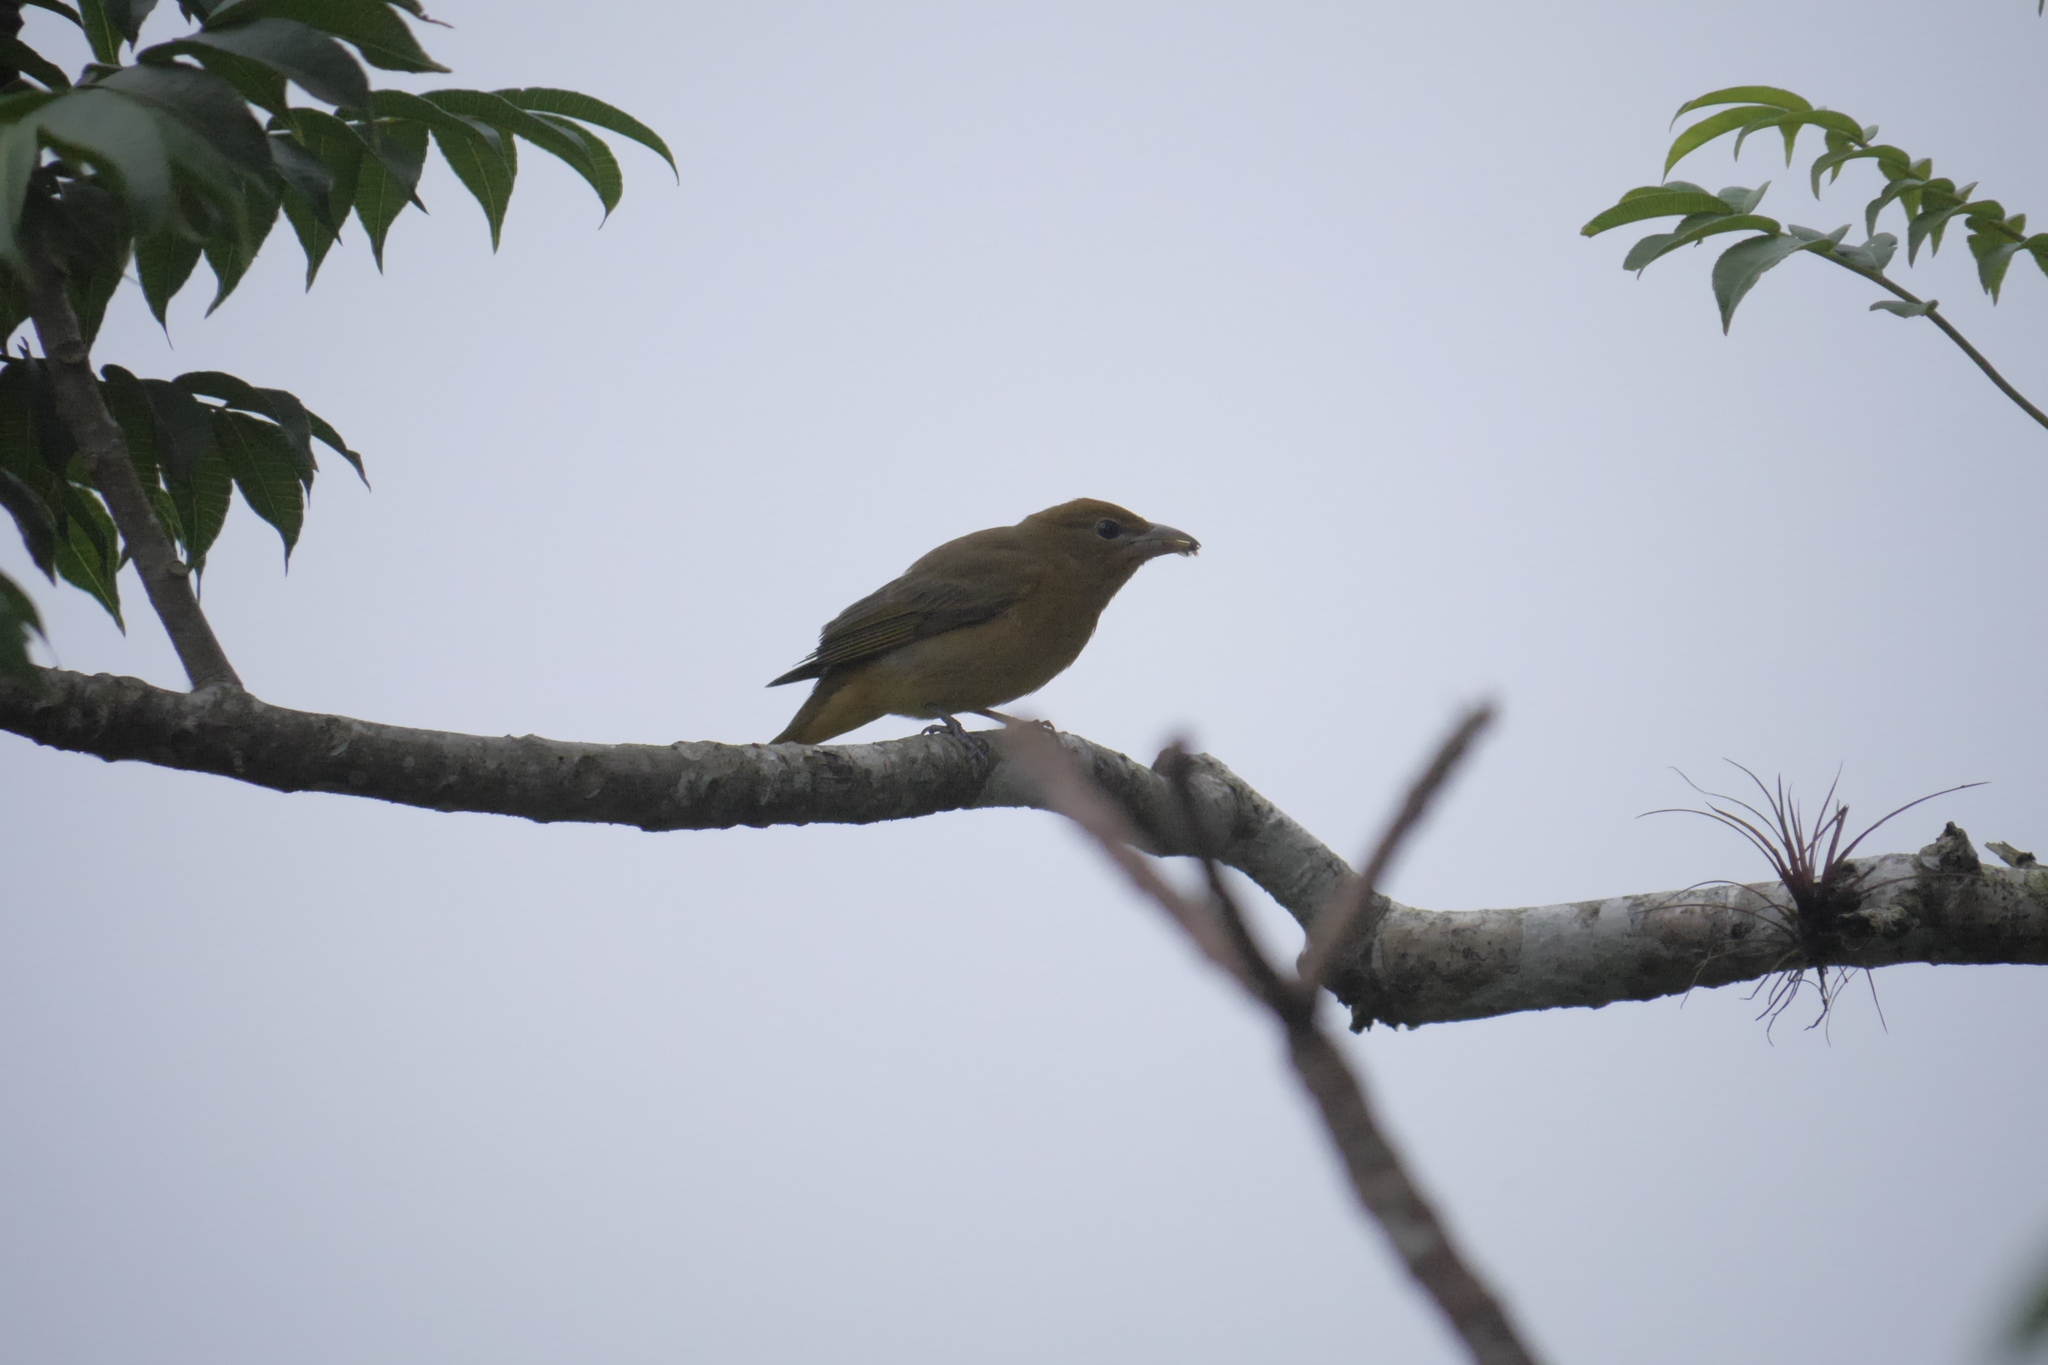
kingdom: Animalia
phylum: Chordata
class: Aves
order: Passeriformes
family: Cardinalidae
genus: Piranga
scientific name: Piranga rubra
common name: Summer tanager
